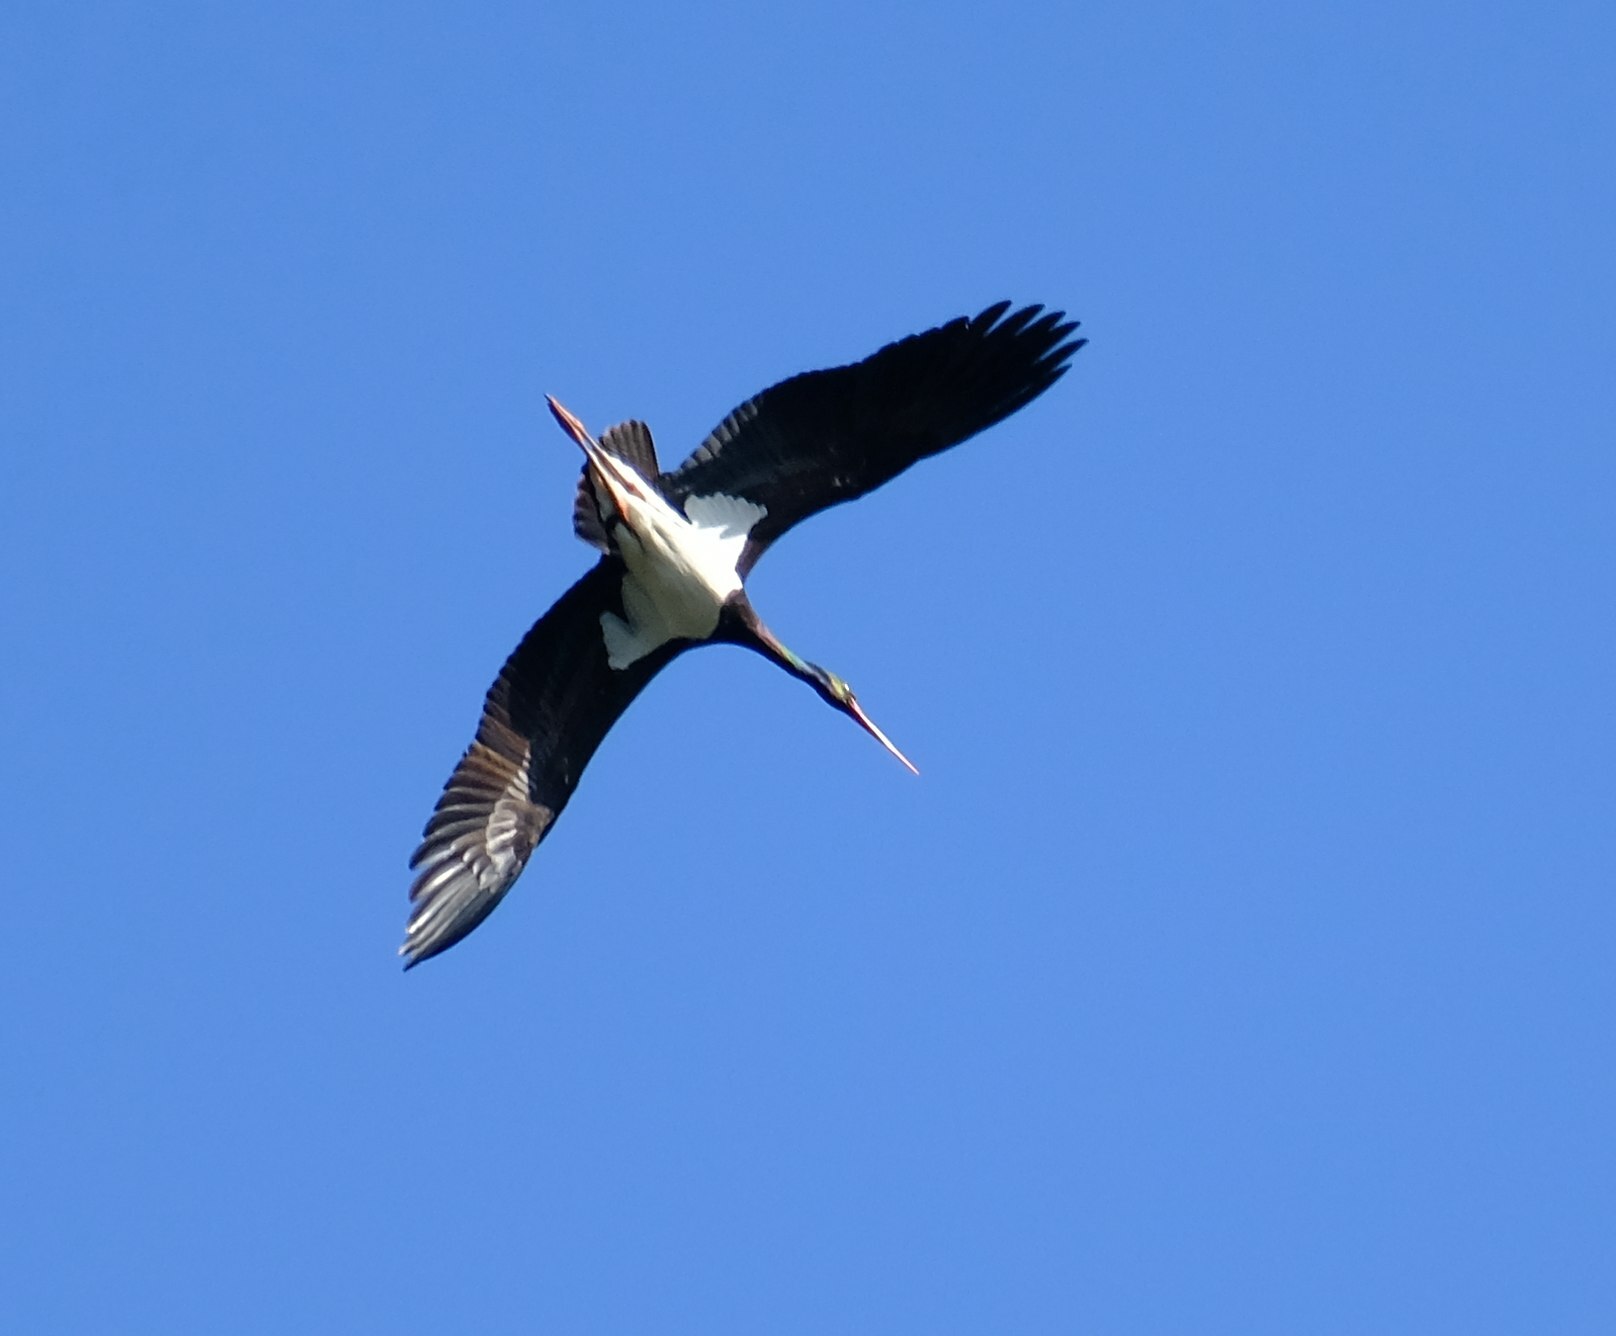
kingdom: Animalia
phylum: Chordata
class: Aves
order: Ciconiiformes
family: Ciconiidae
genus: Ciconia
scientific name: Ciconia nigra
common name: Black stork
